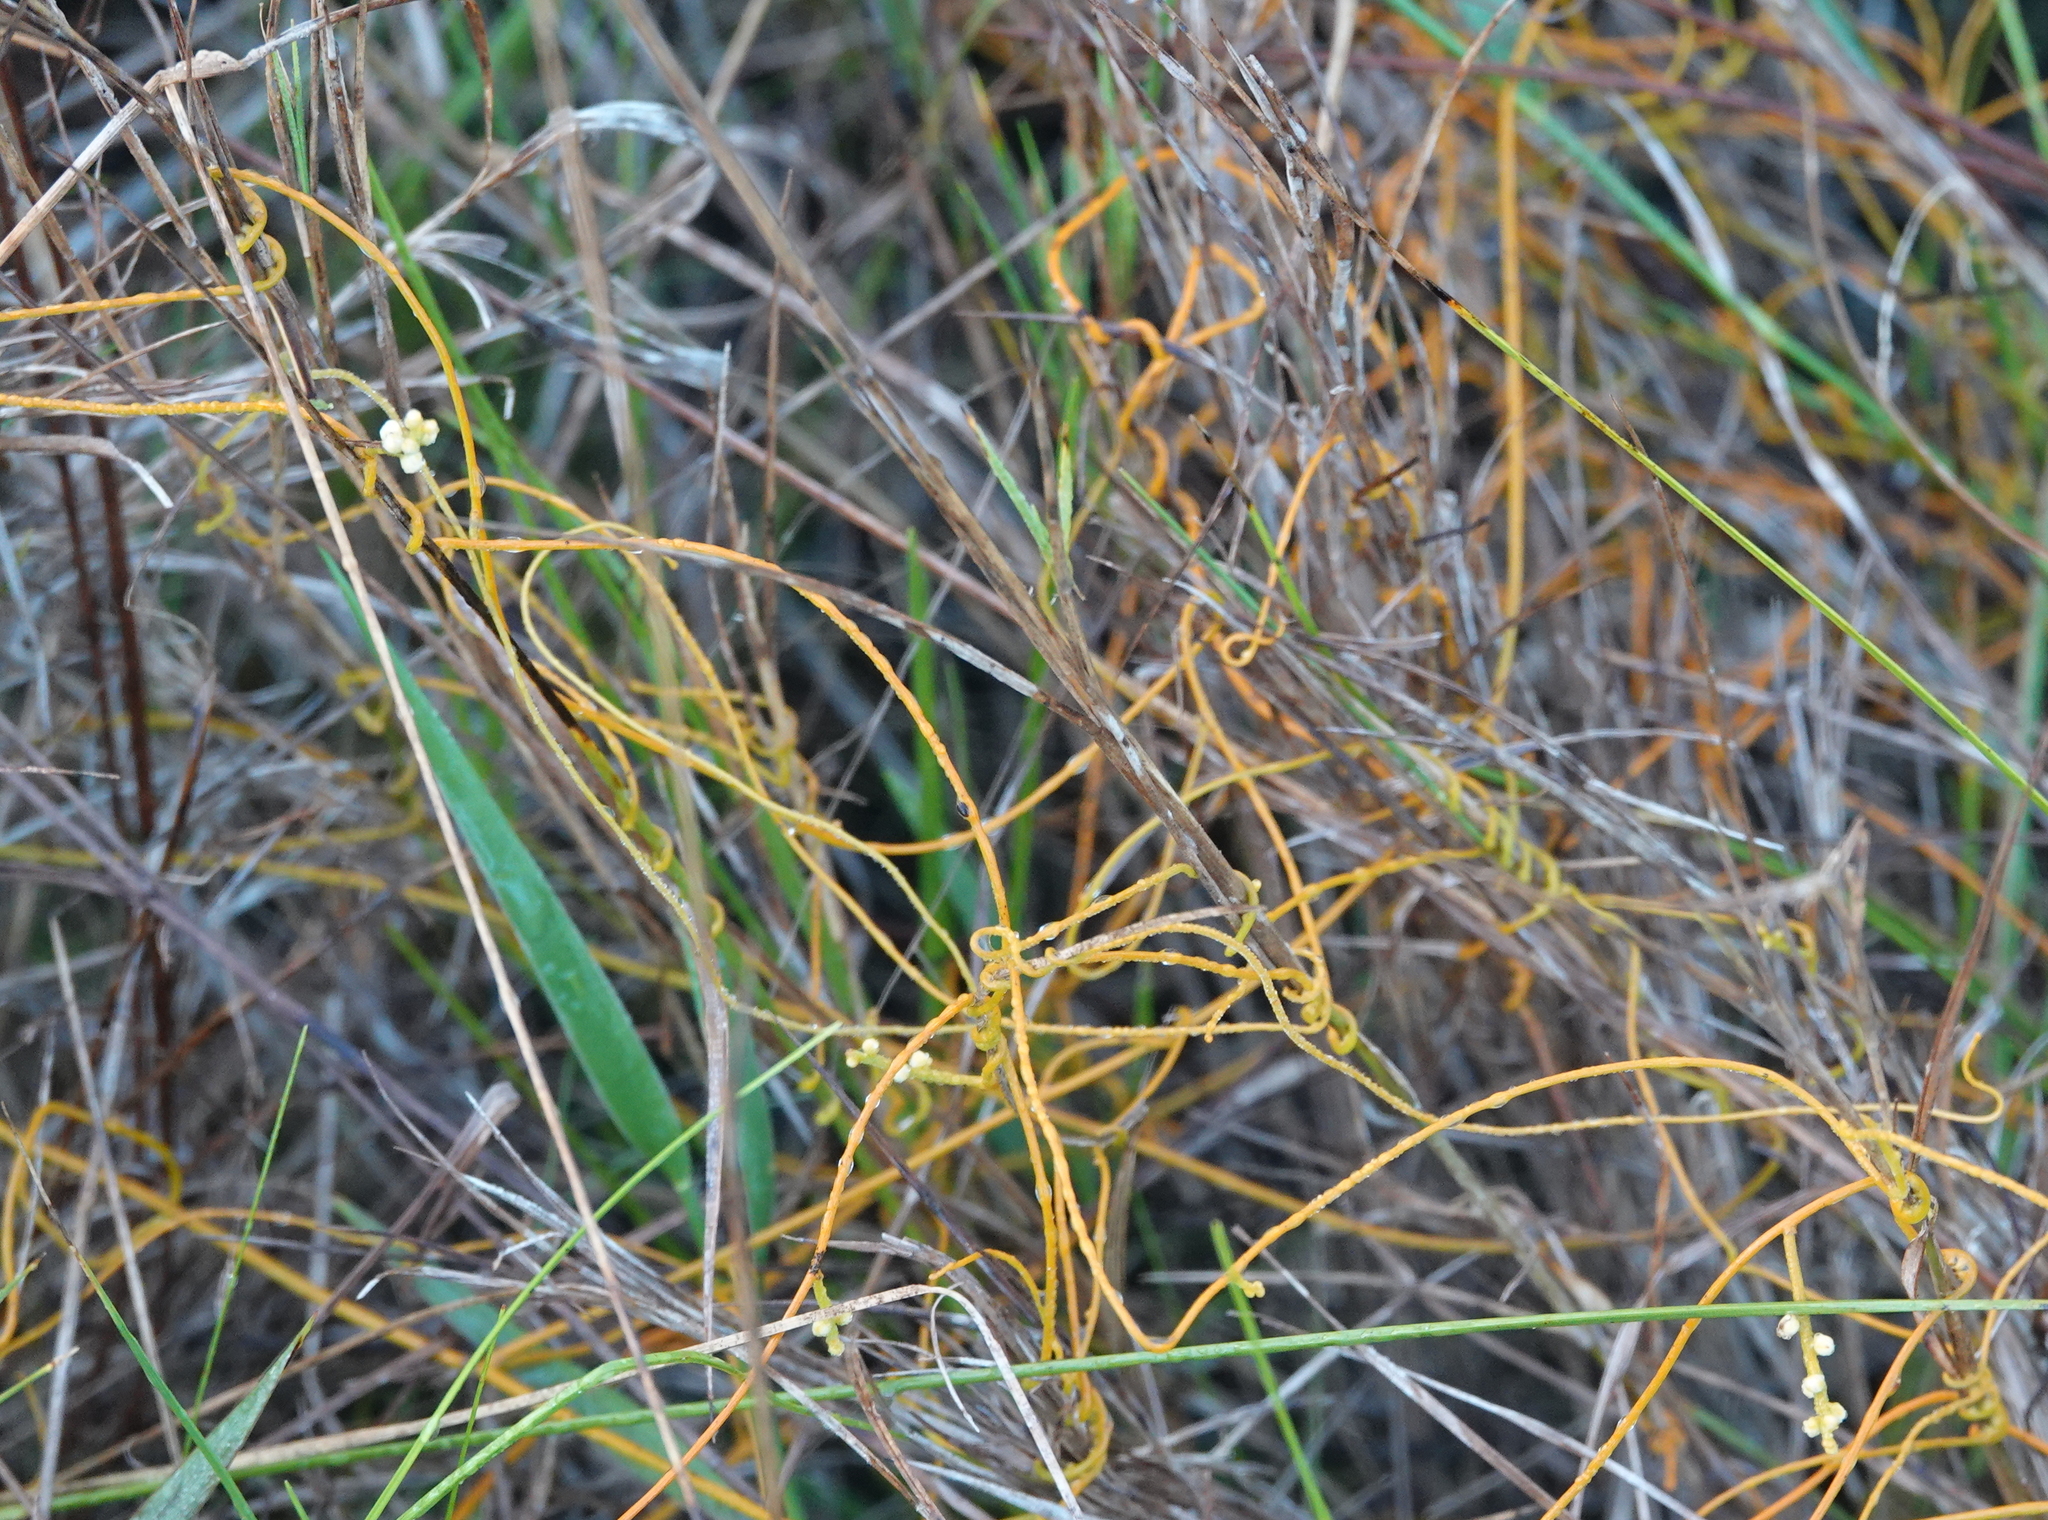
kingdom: Plantae
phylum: Tracheophyta
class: Magnoliopsida
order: Laurales
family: Lauraceae
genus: Cassytha
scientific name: Cassytha filiformis
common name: Dodder-laurel
